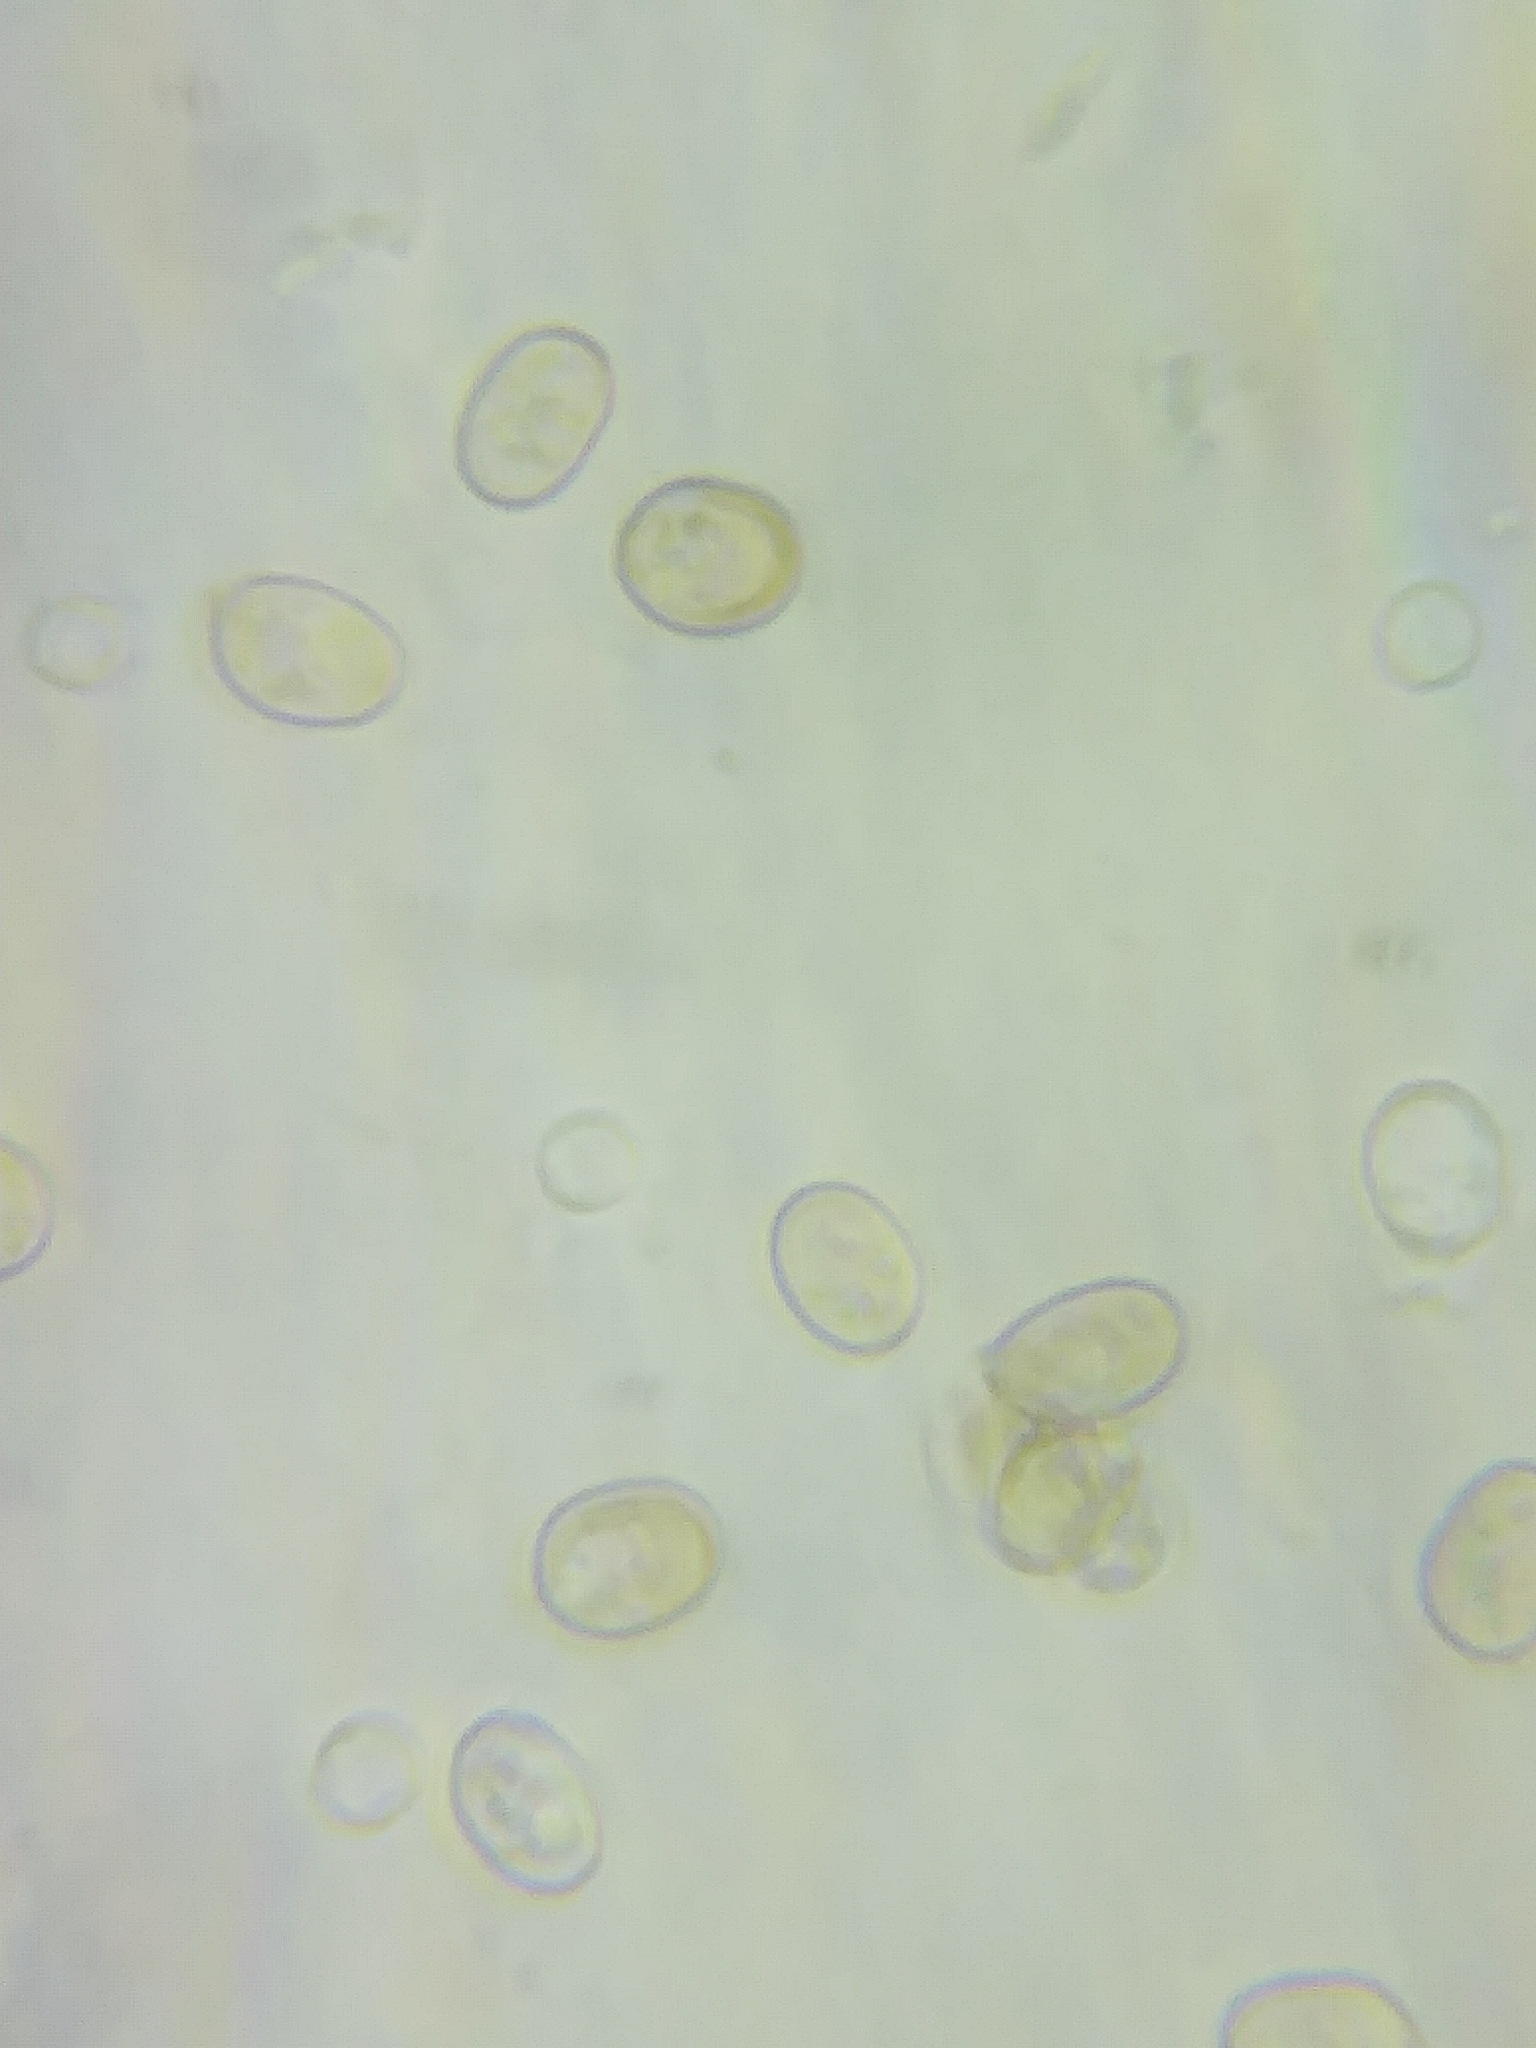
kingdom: Fungi
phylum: Basidiomycota
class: Agaricomycetes
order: Agaricales
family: Pluteaceae
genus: Volvariella
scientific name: Volvariella hypopithys
